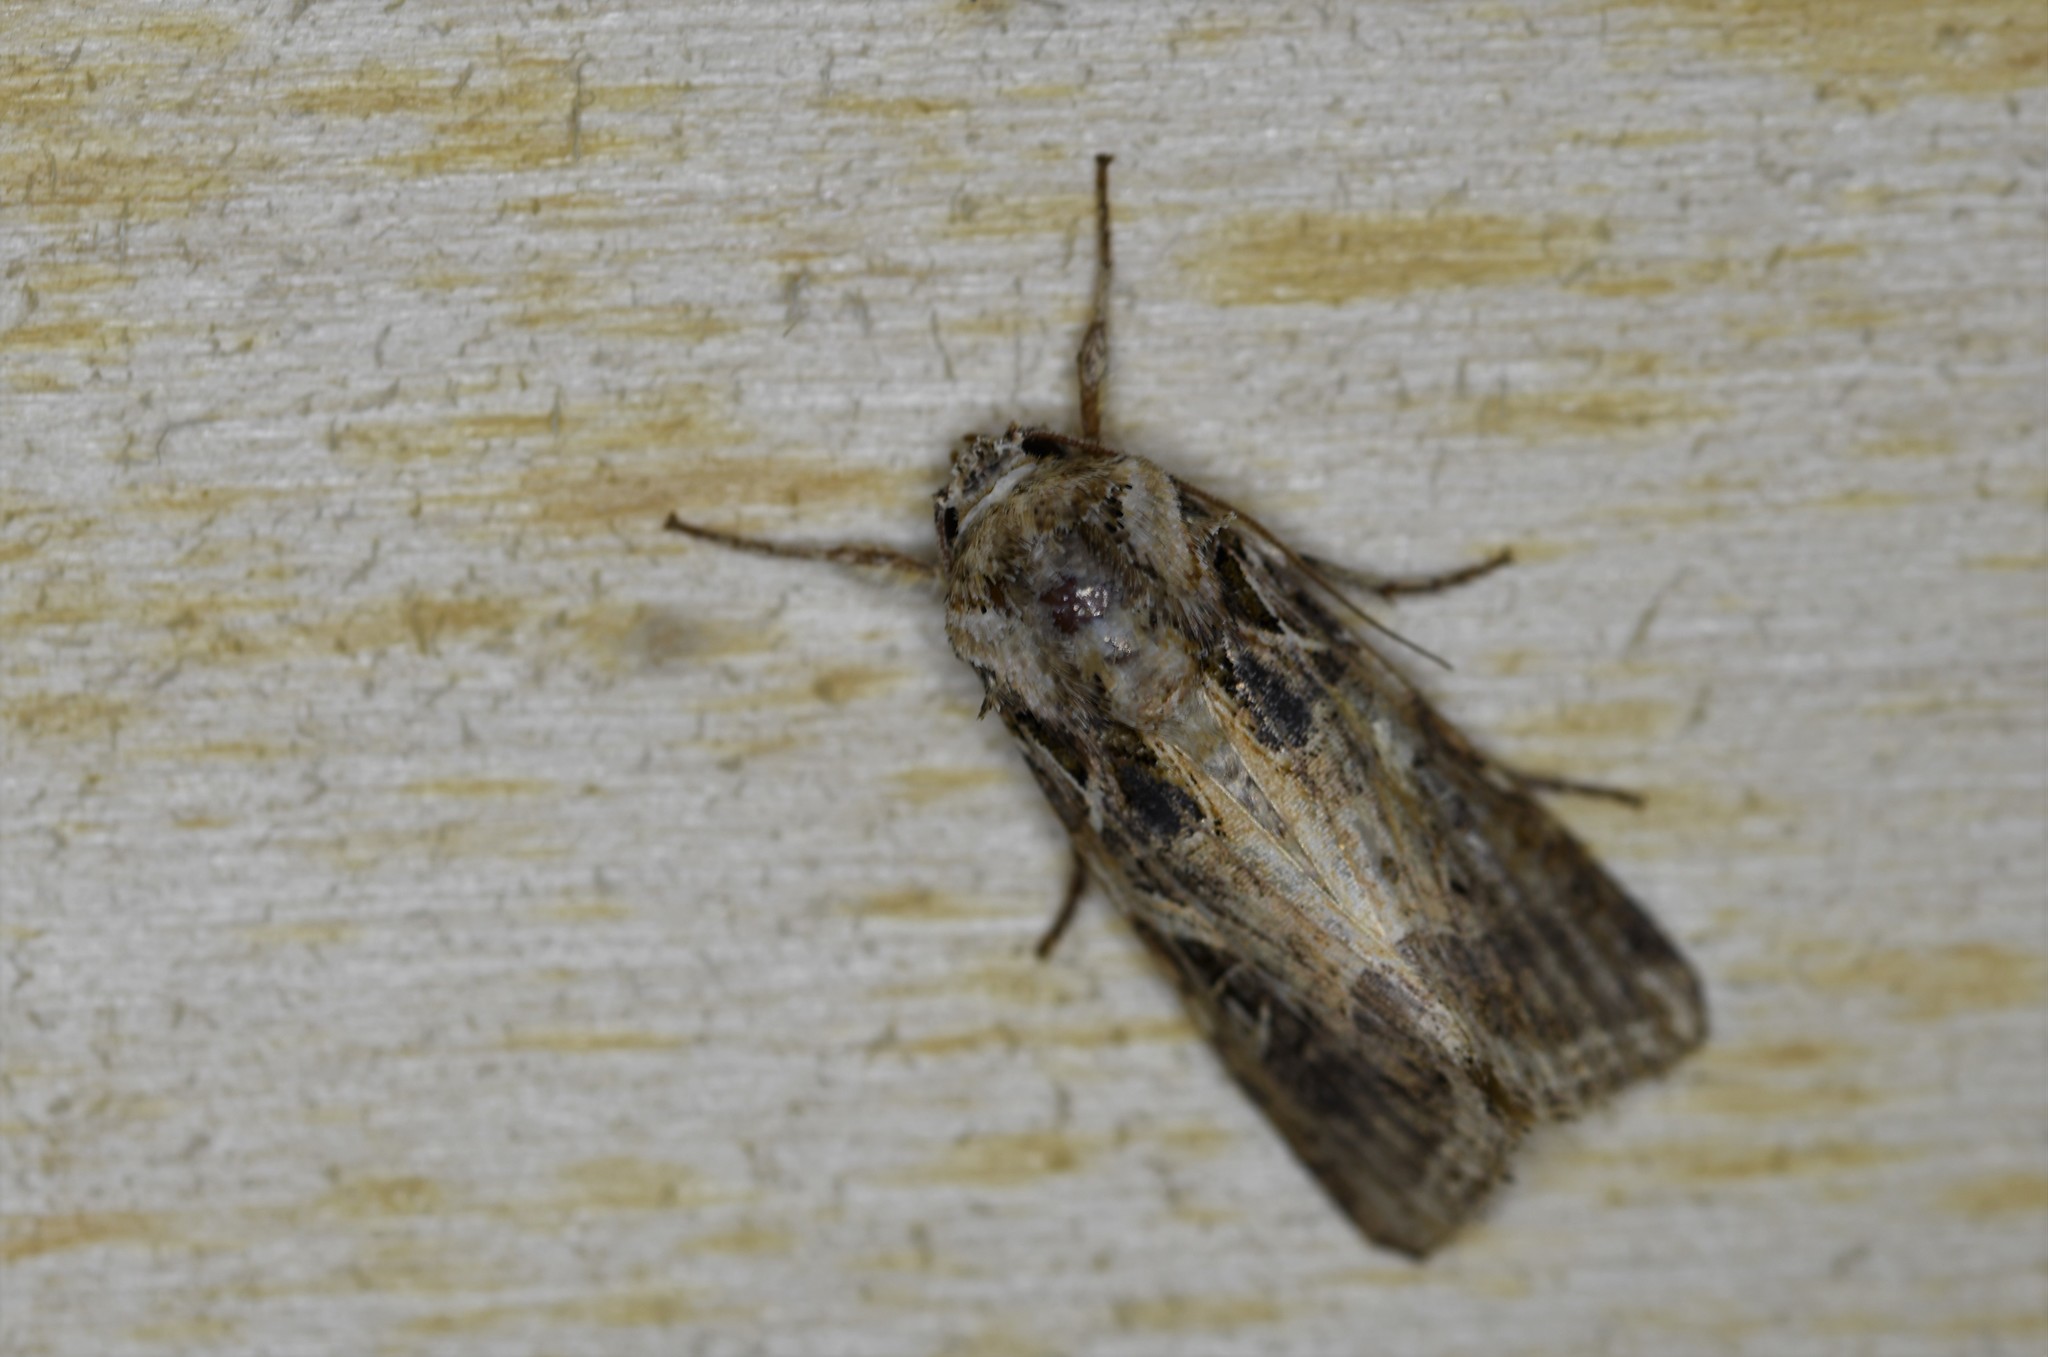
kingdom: Animalia
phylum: Arthropoda
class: Insecta
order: Lepidoptera
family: Noctuidae
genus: Spodoptera
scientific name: Spodoptera littoralis
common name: Egyptian cotton leafworm
